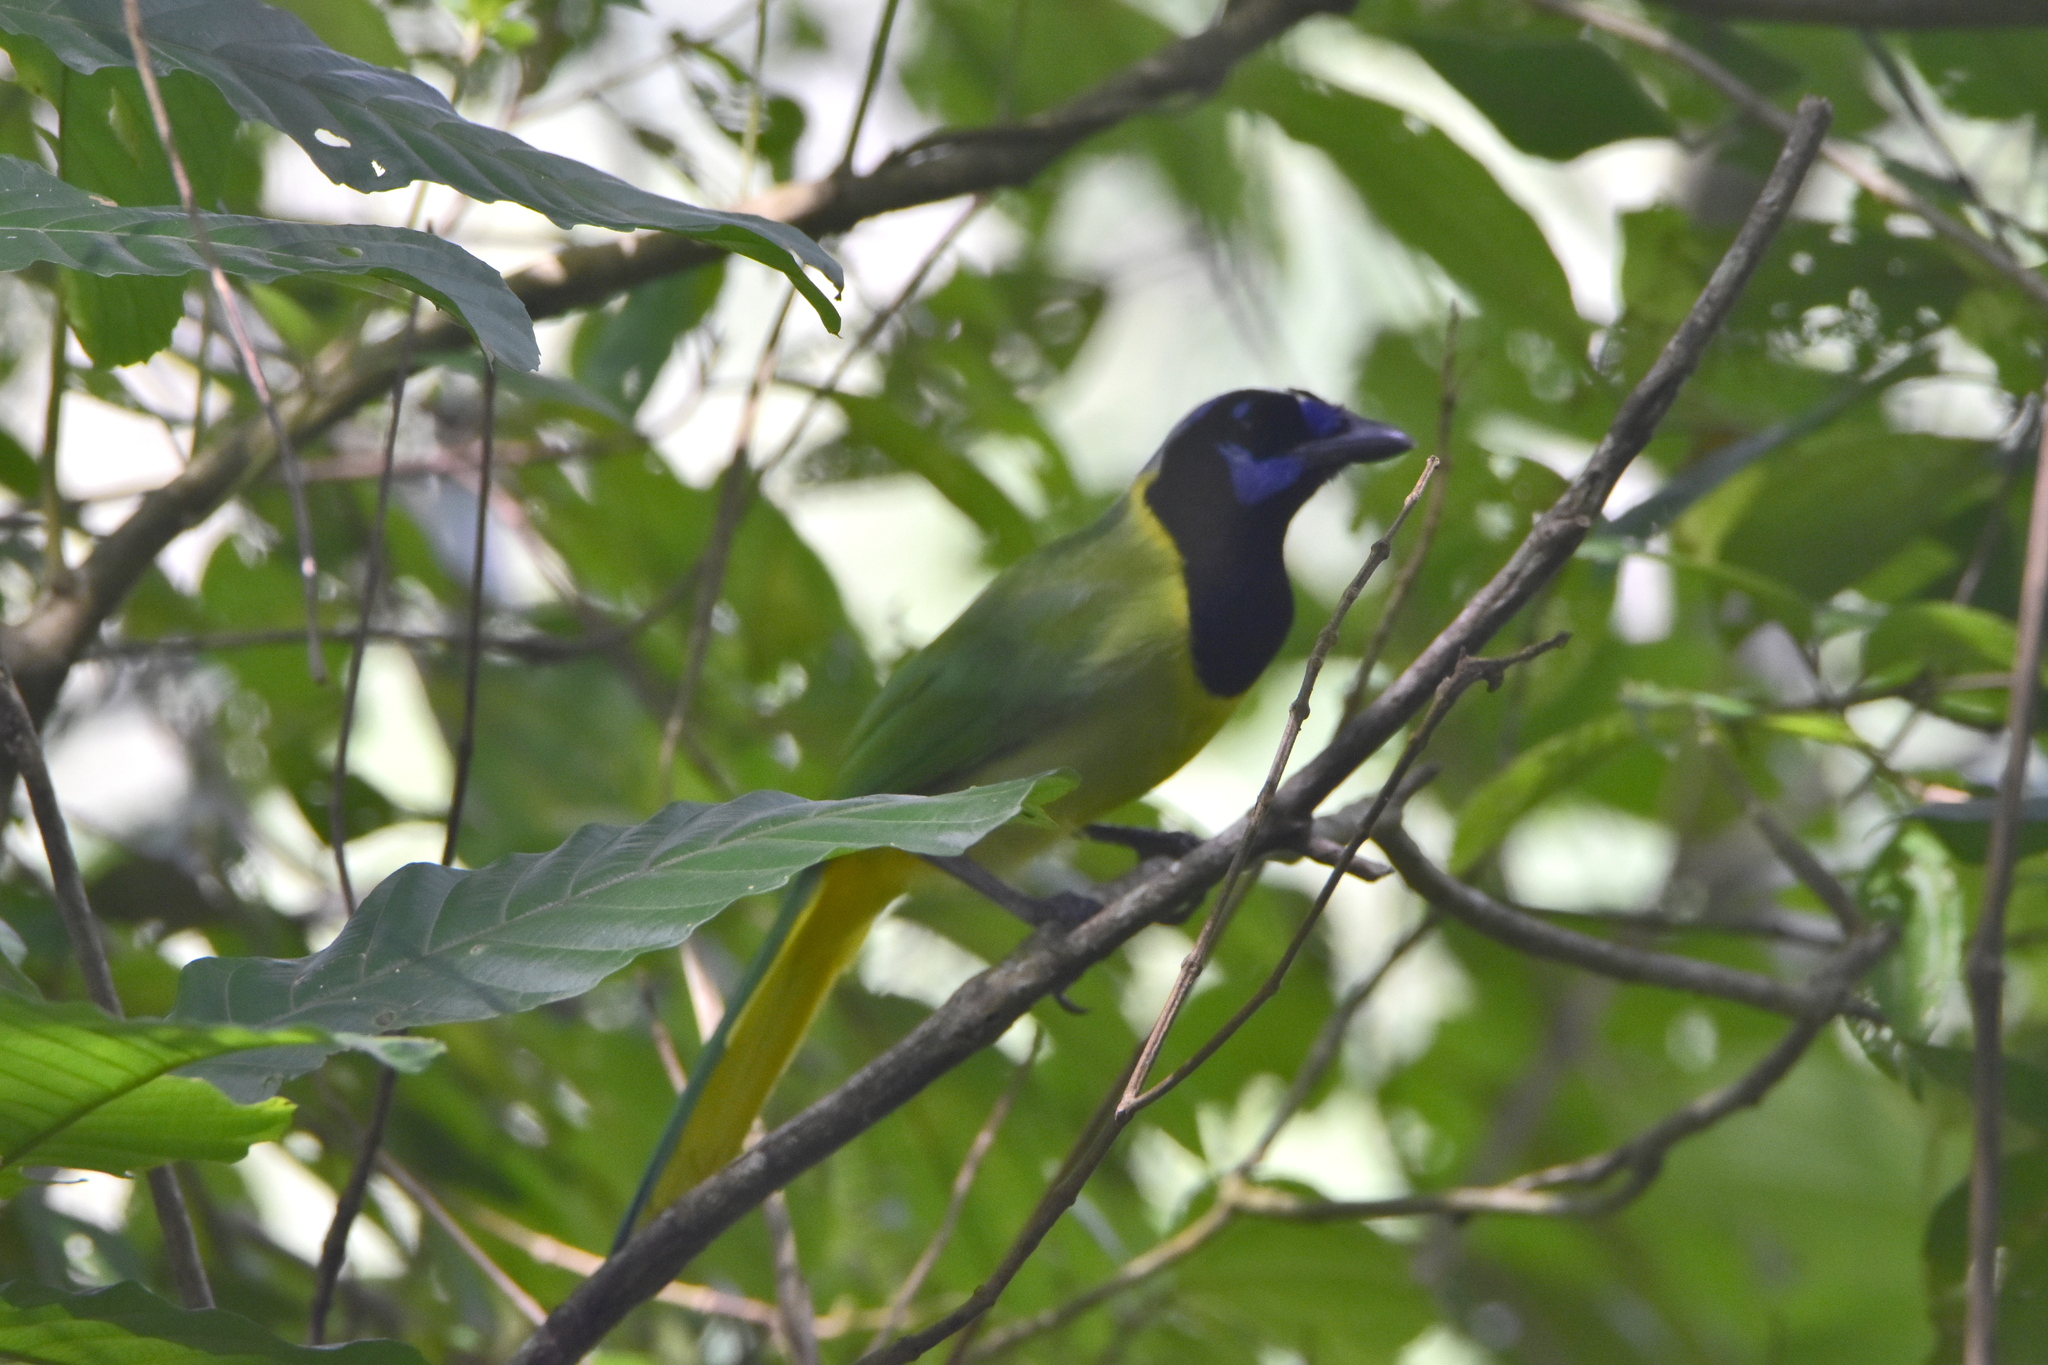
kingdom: Animalia
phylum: Chordata
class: Aves
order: Passeriformes
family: Corvidae
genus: Cyanocorax
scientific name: Cyanocorax yncas
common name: Green jay
